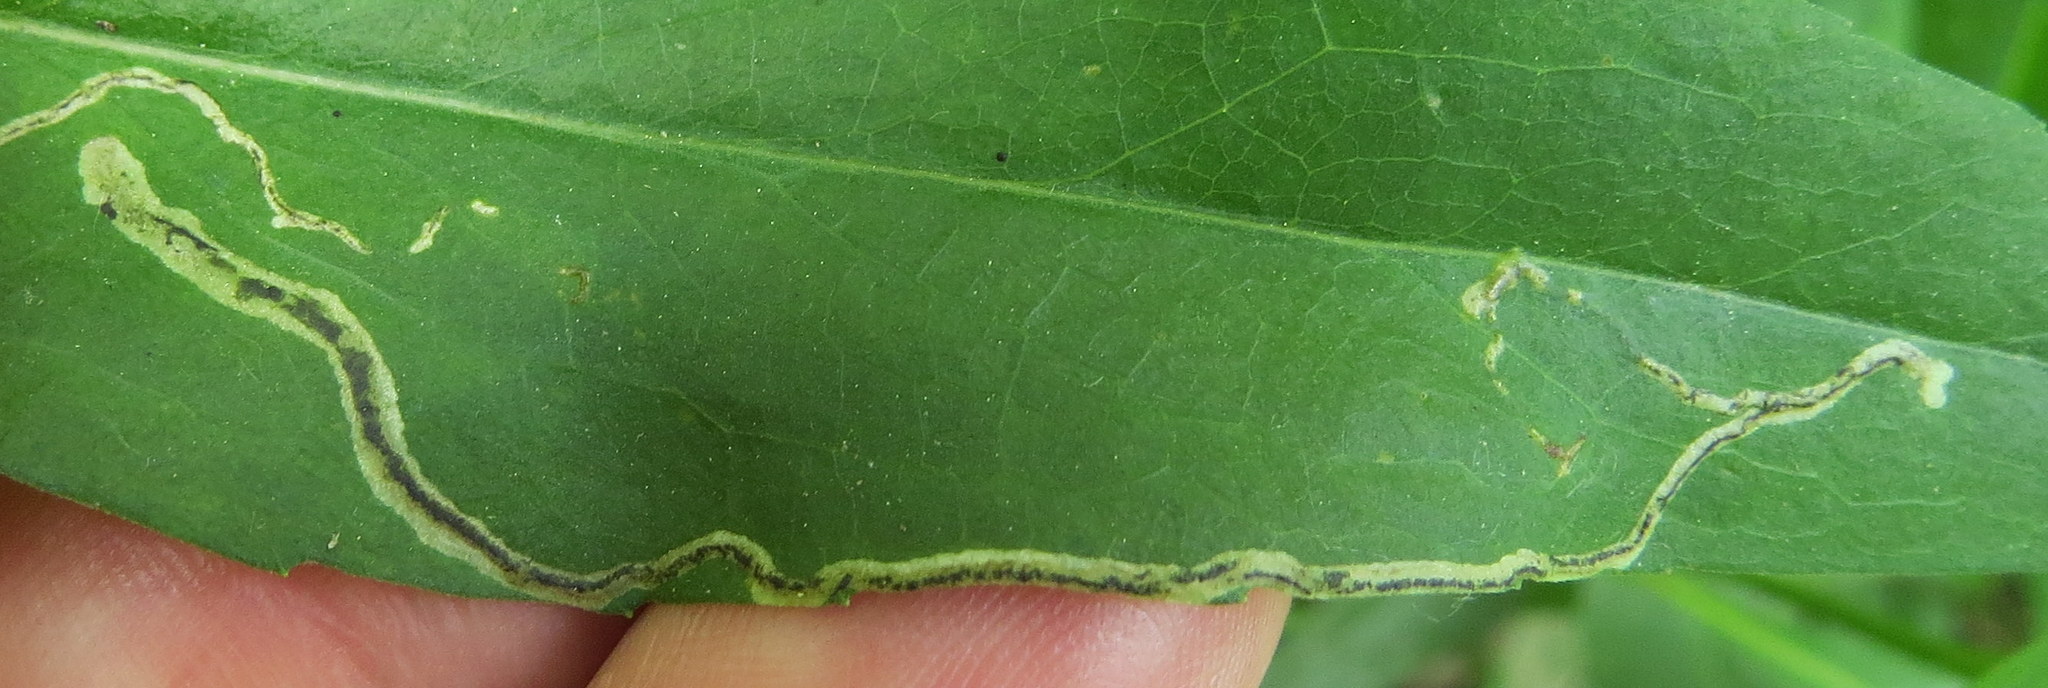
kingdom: Animalia
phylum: Arthropoda
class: Insecta
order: Diptera
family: Agromyzidae
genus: Liriomyza
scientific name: Liriomyza eupatorii
